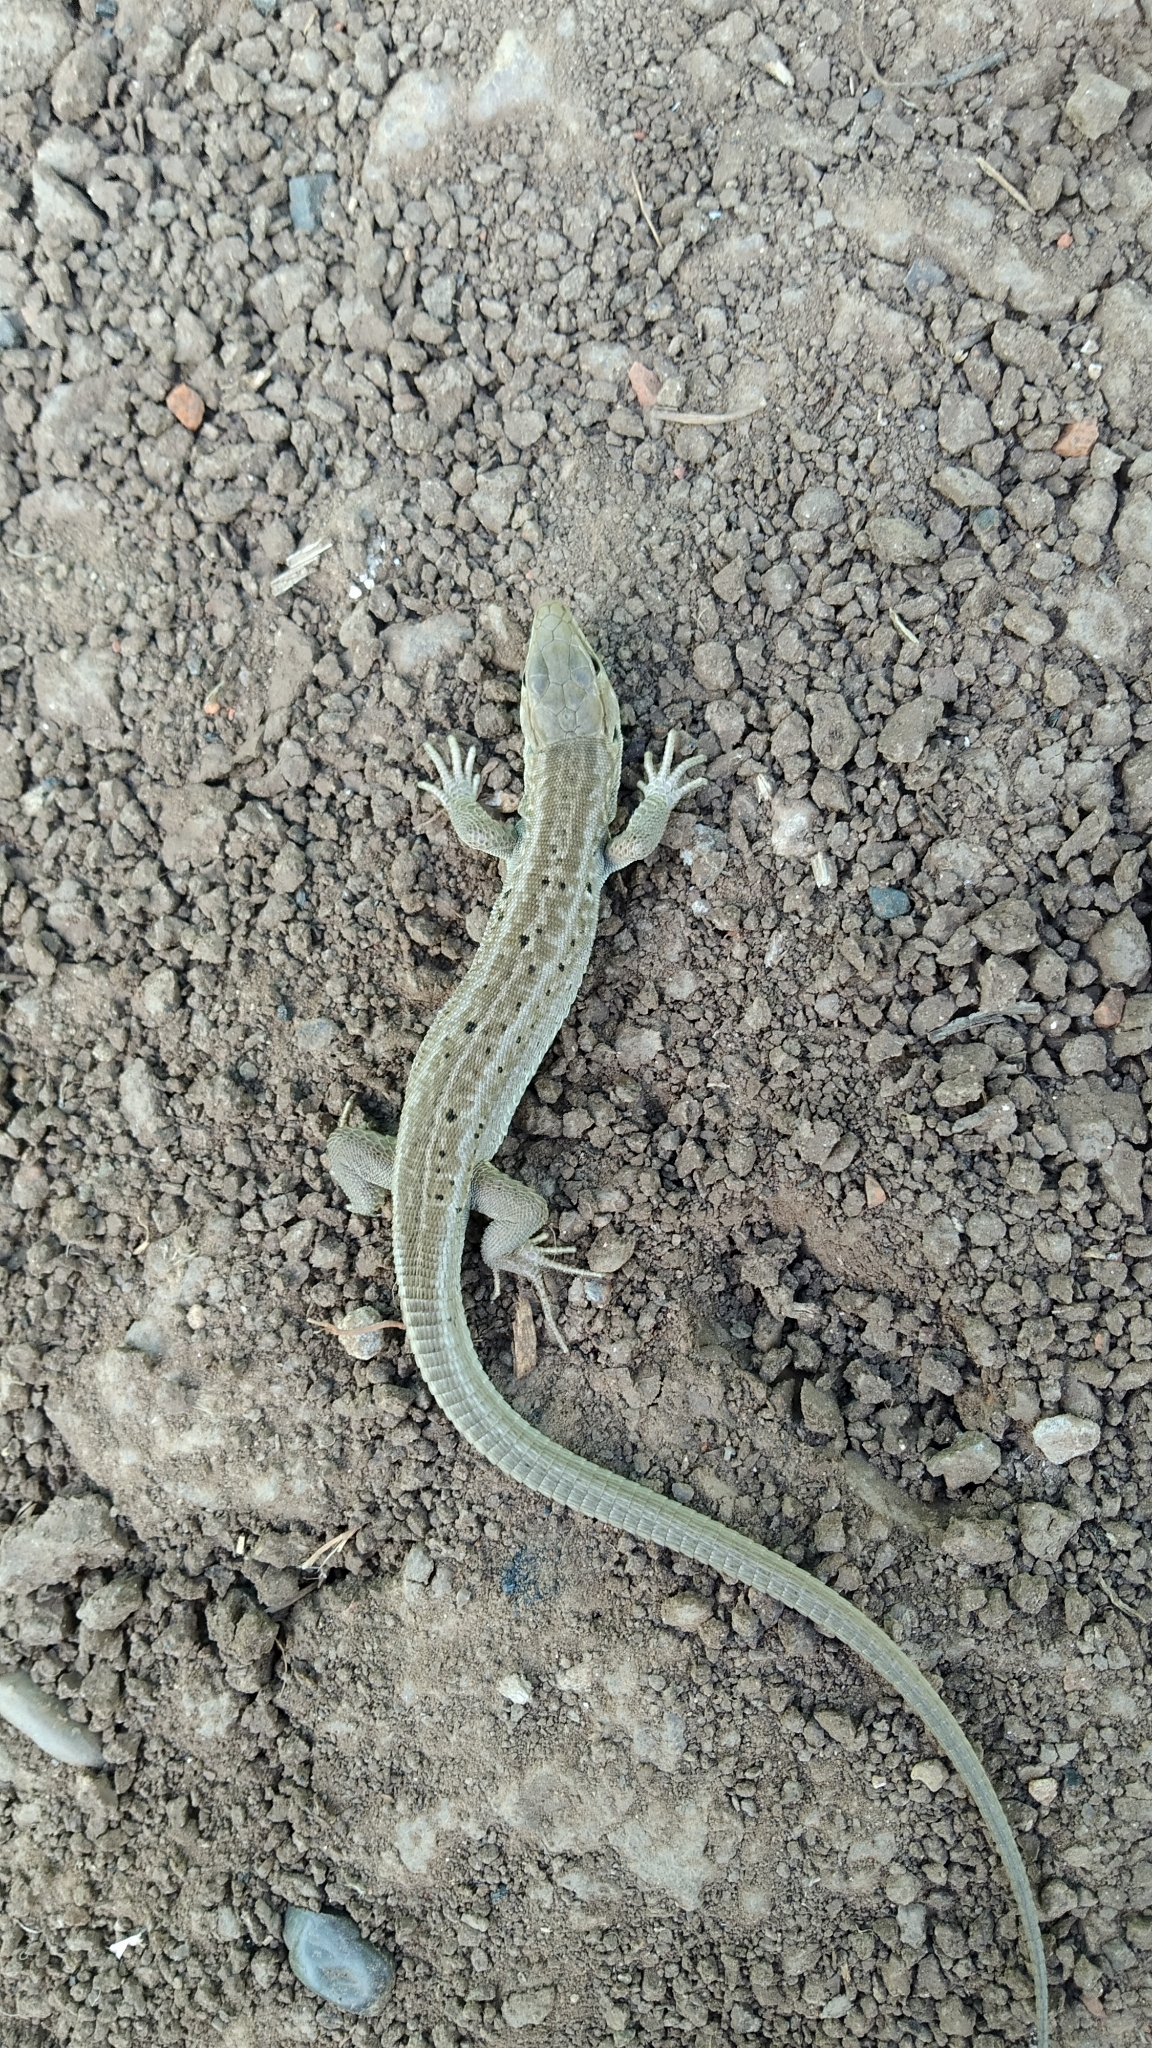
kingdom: Animalia
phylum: Chordata
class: Squamata
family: Lacertidae
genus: Lacerta
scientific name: Lacerta agilis
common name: Sand lizard
